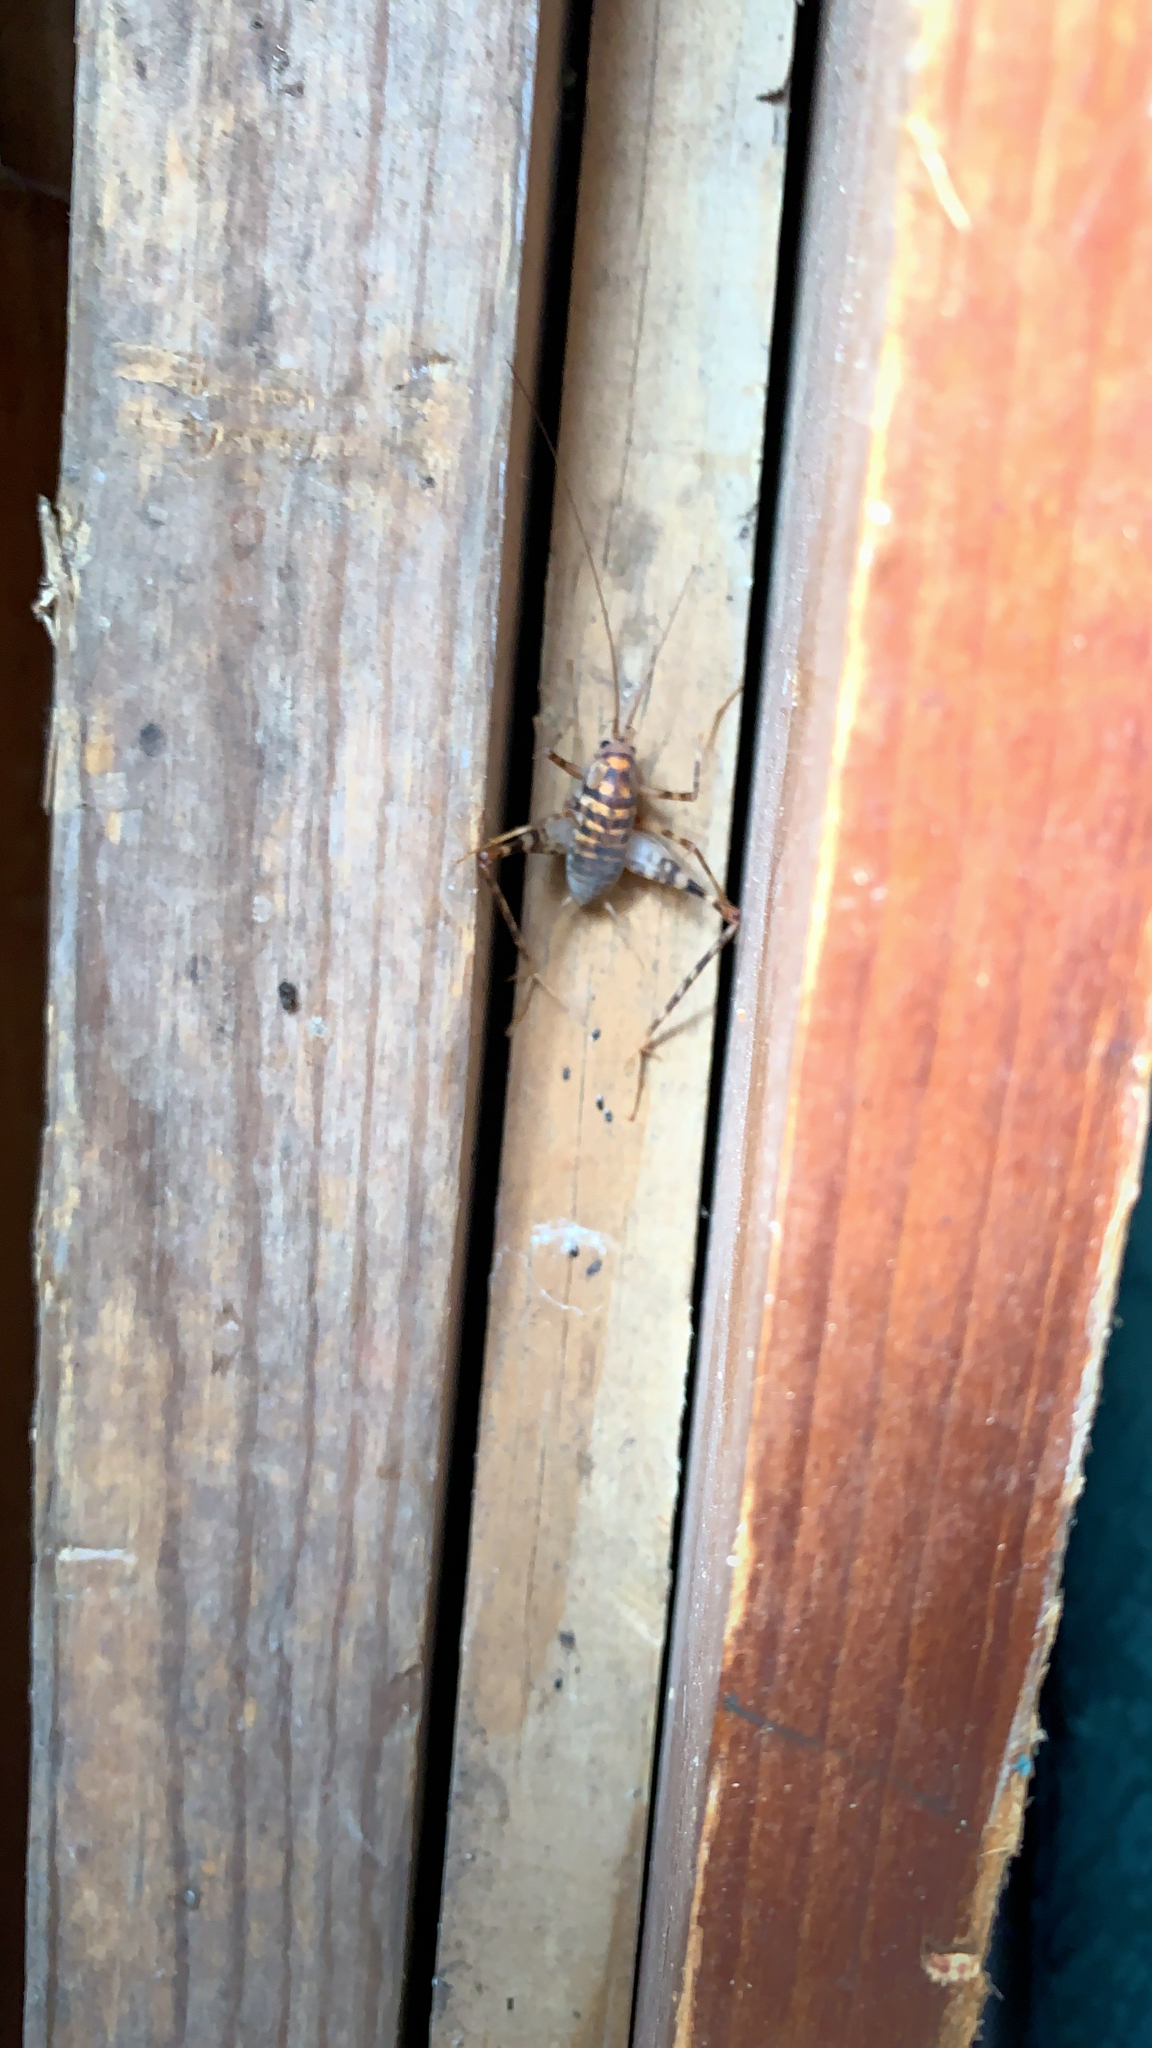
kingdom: Animalia
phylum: Arthropoda
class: Insecta
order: Orthoptera
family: Rhaphidophoridae
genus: Tachycines
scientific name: Tachycines asynamorus
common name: Greenhouse camel cricket
